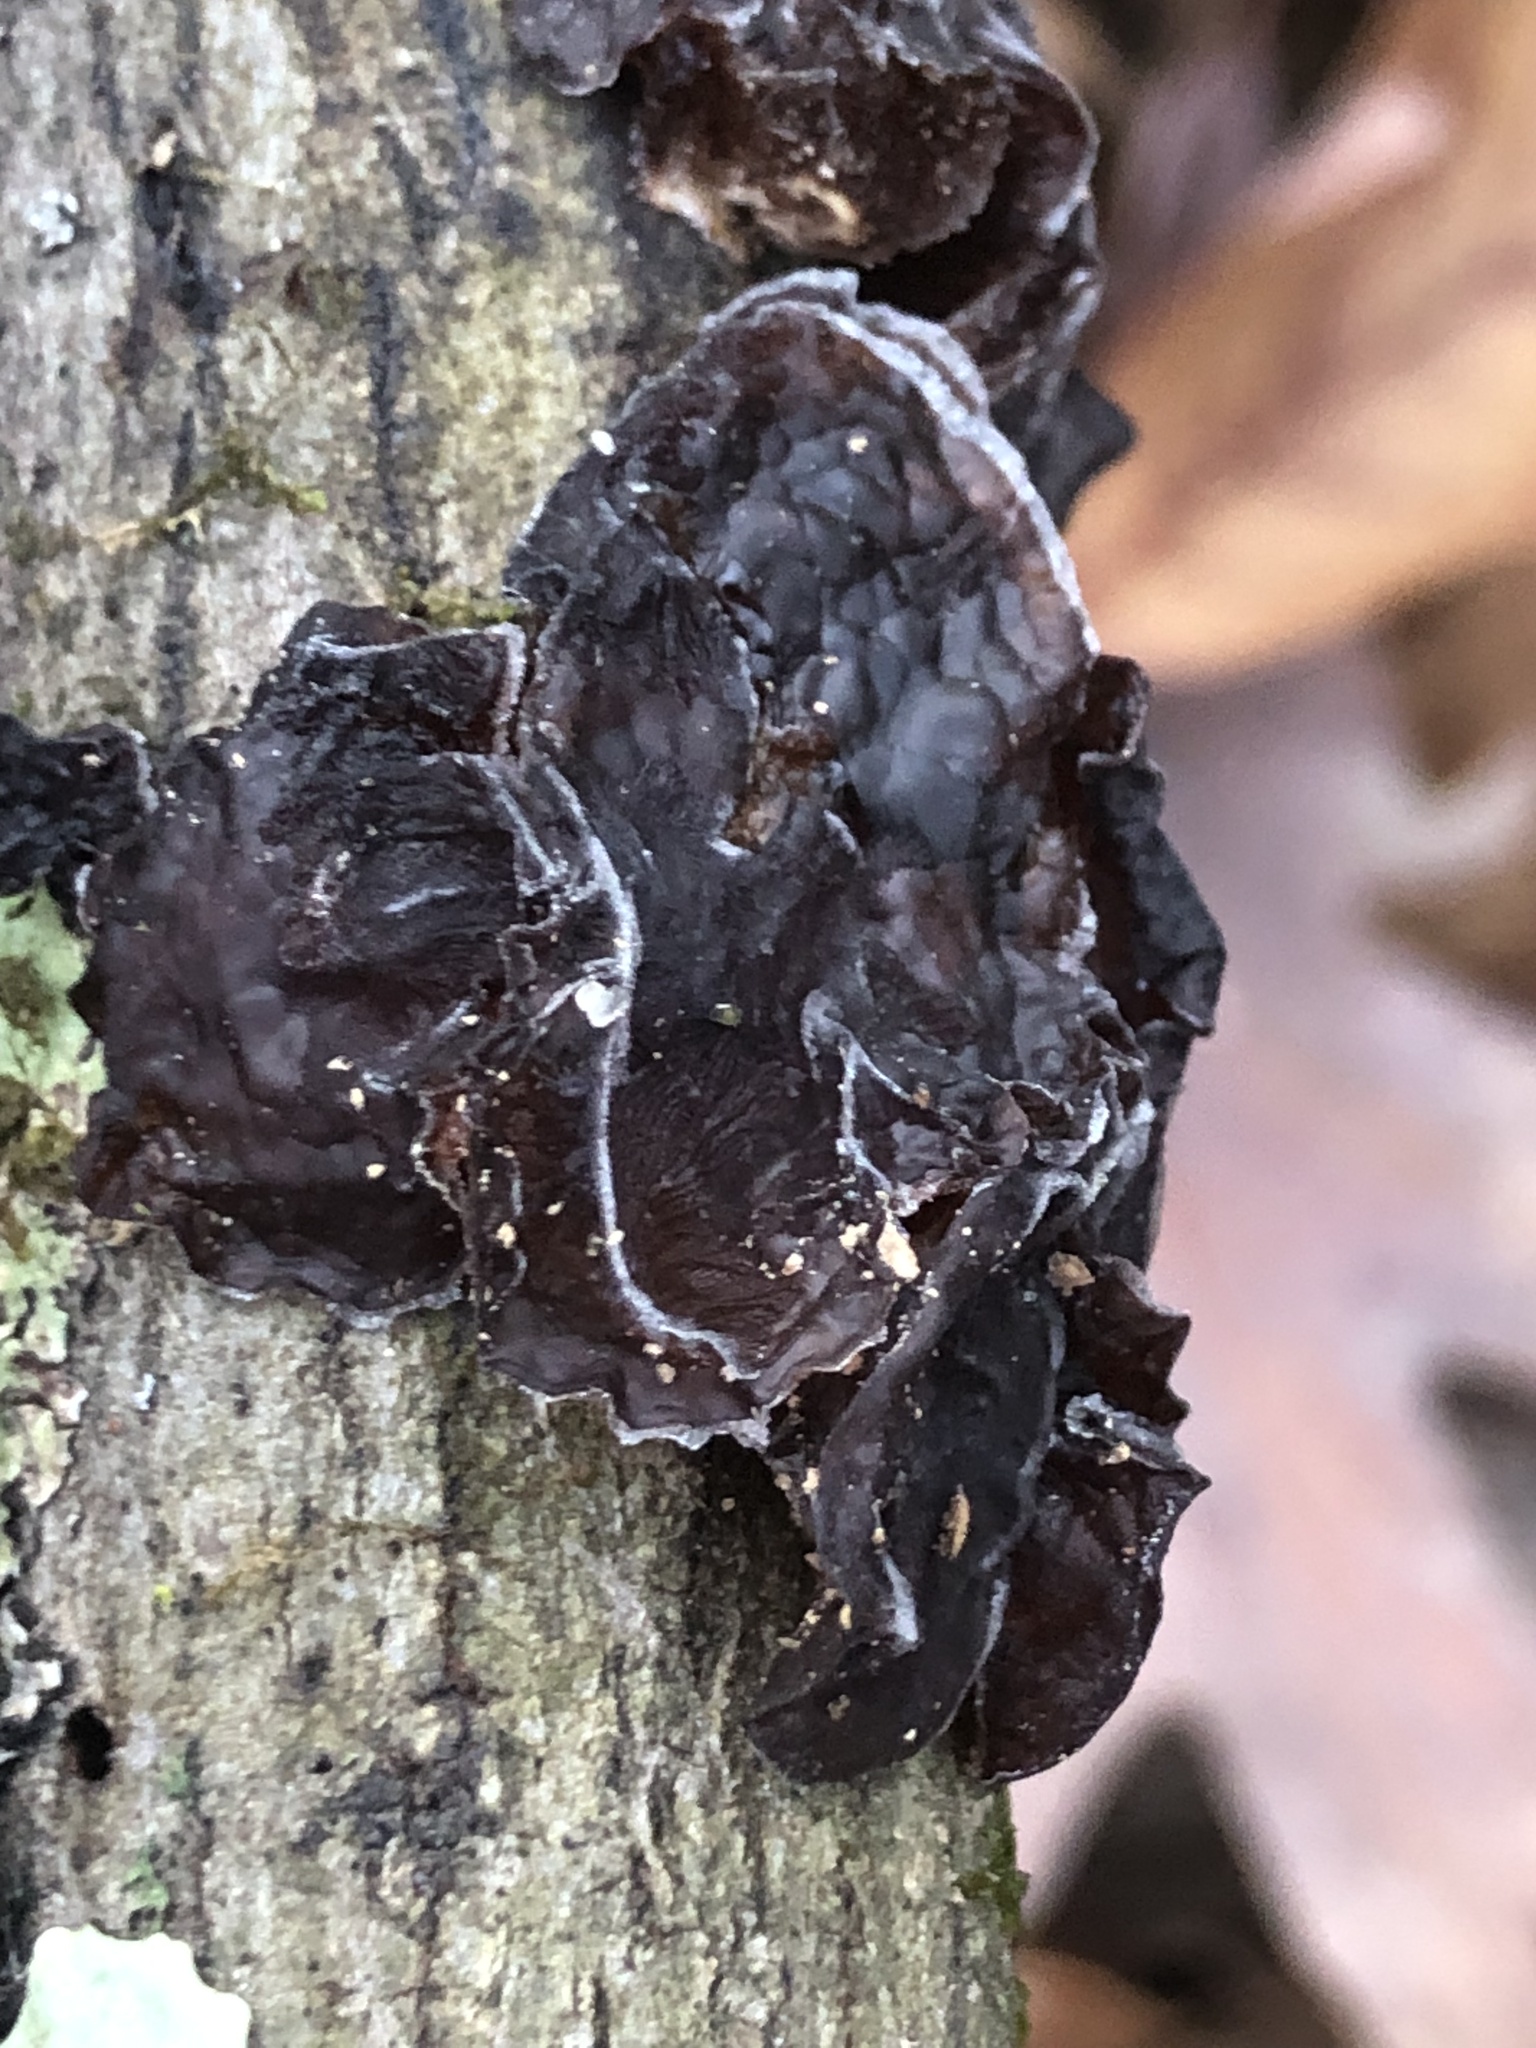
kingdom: Fungi
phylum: Basidiomycota
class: Agaricomycetes
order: Auriculariales
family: Auriculariaceae
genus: Exidia
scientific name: Exidia
